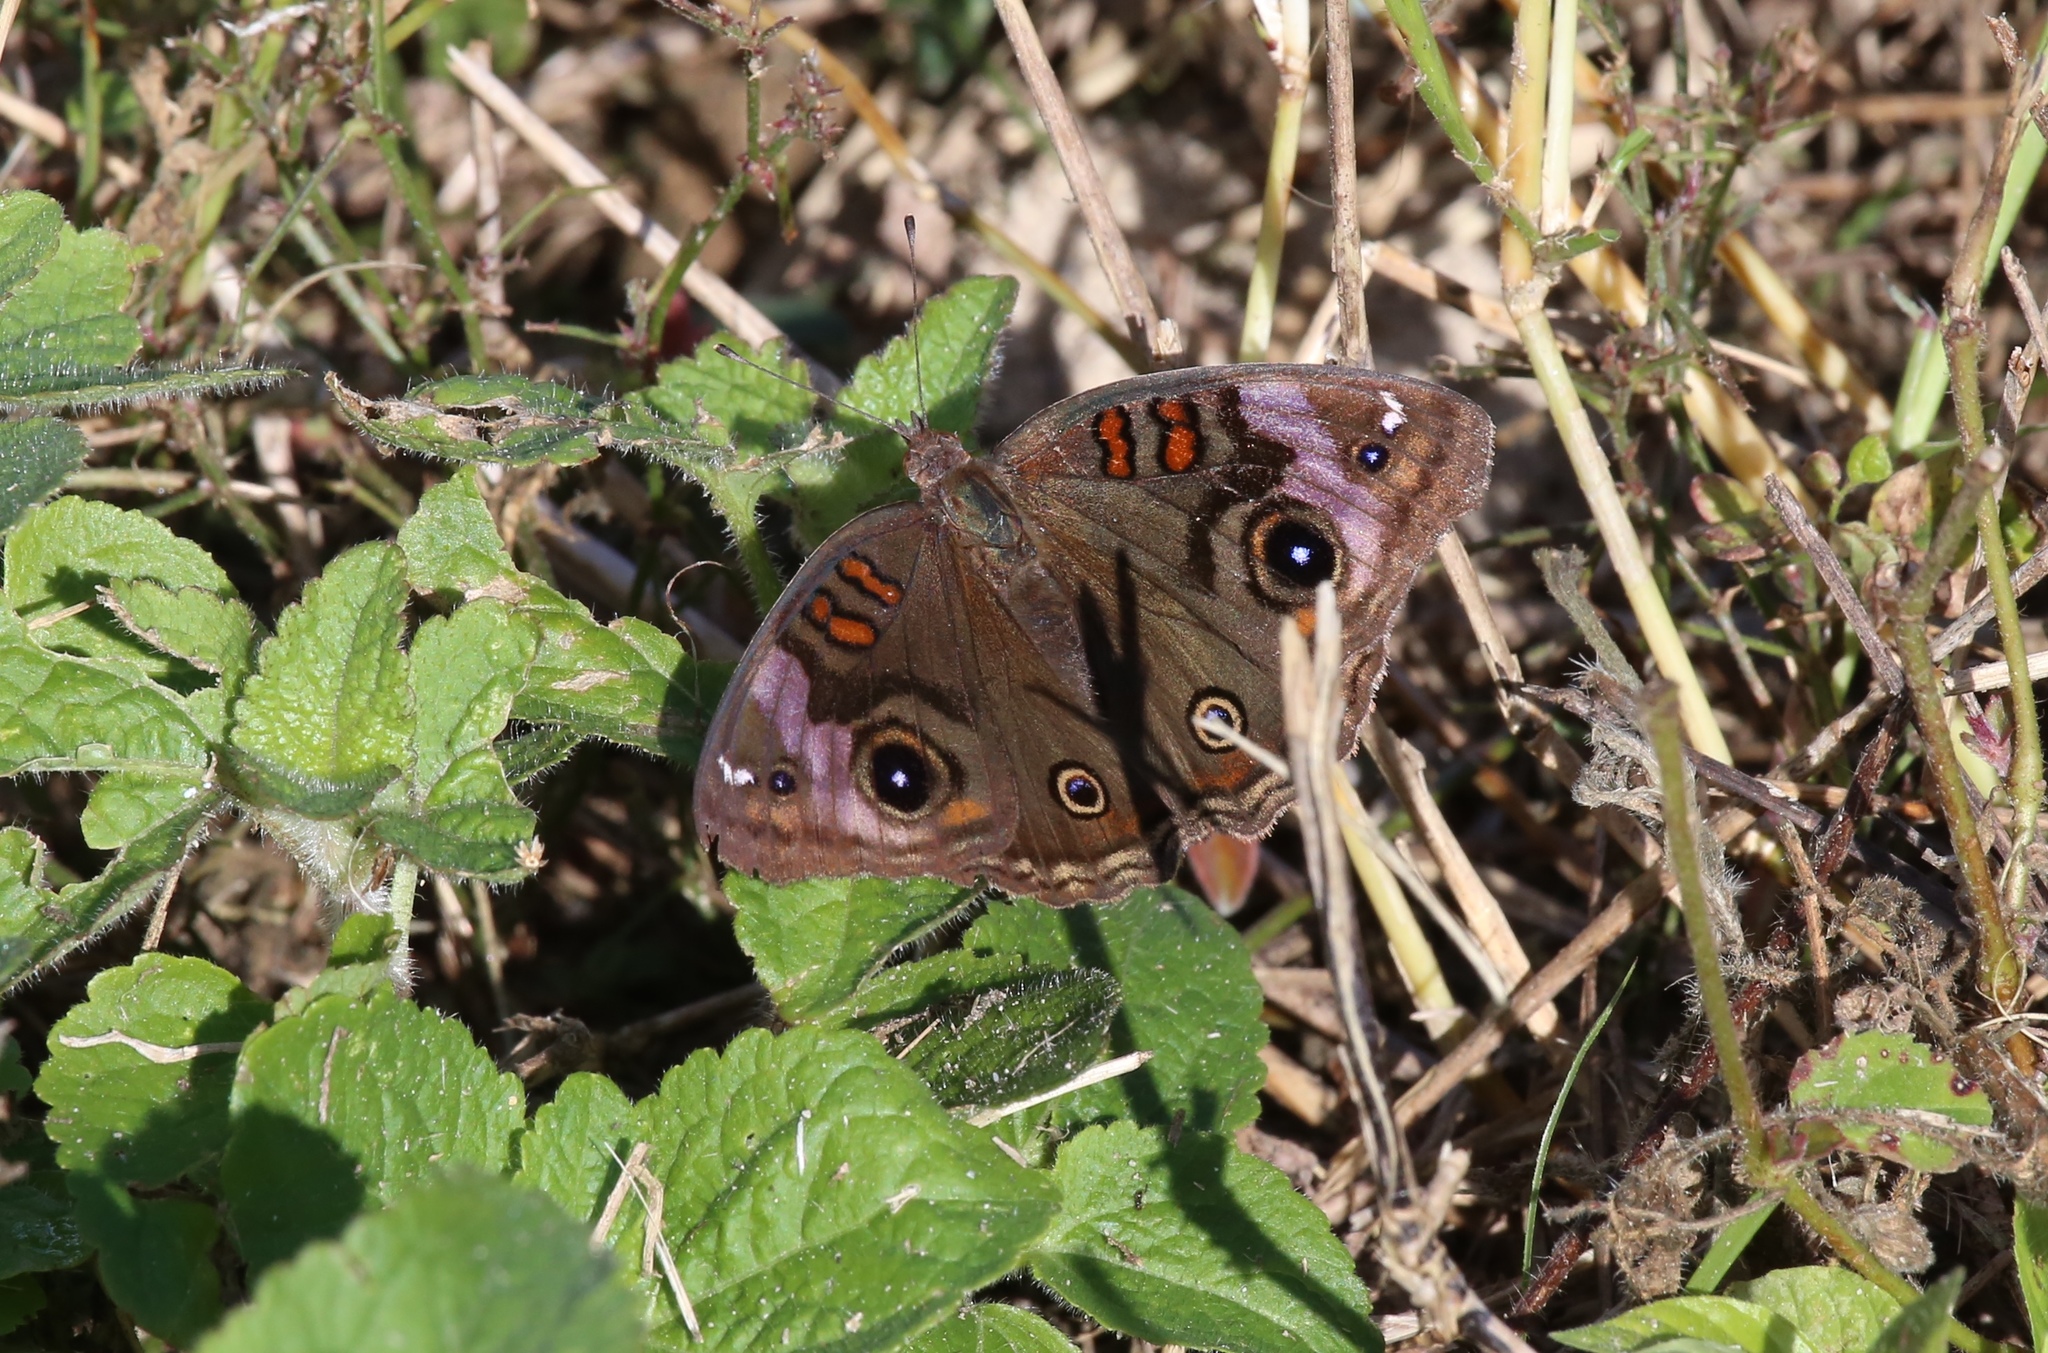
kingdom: Animalia
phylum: Arthropoda
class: Insecta
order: Lepidoptera
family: Nymphalidae
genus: Junonia
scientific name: Junonia nigrosuffusa
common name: Dark buckeye
